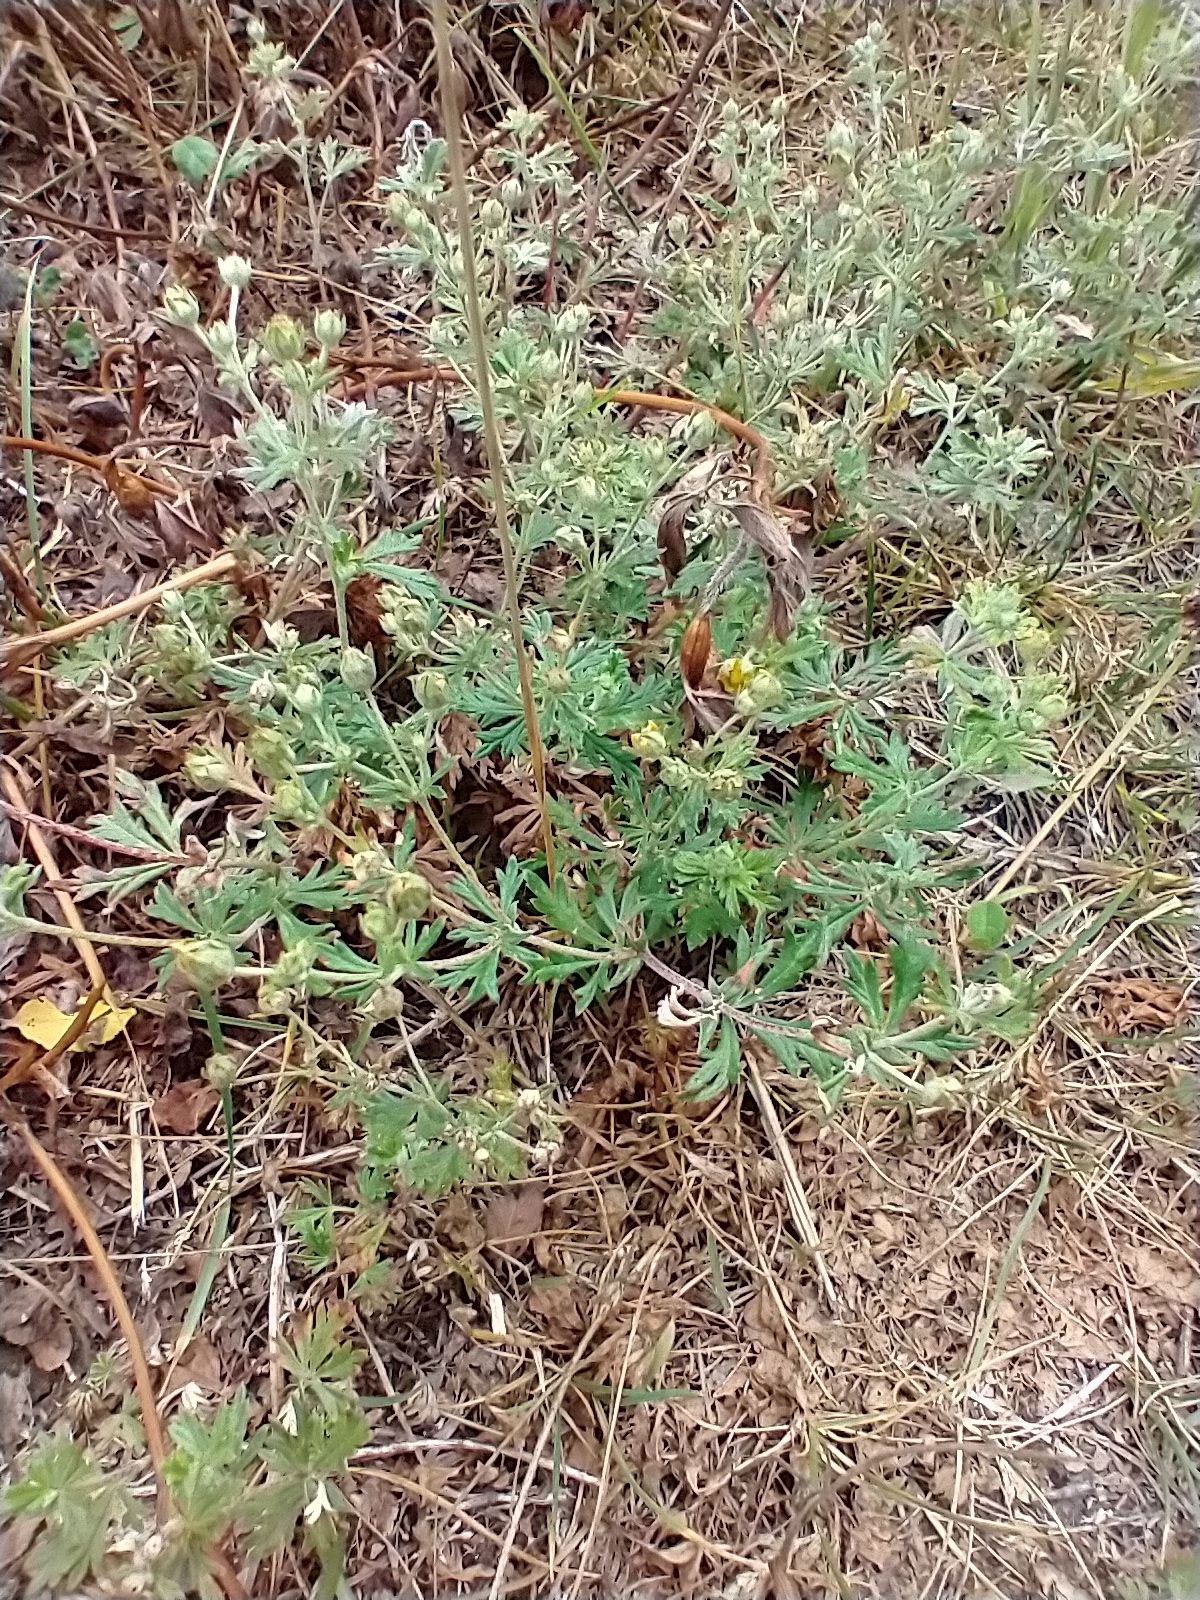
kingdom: Plantae
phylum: Tracheophyta
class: Magnoliopsida
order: Rosales
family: Rosaceae
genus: Potentilla
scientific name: Potentilla argentea
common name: Hoary cinquefoil
